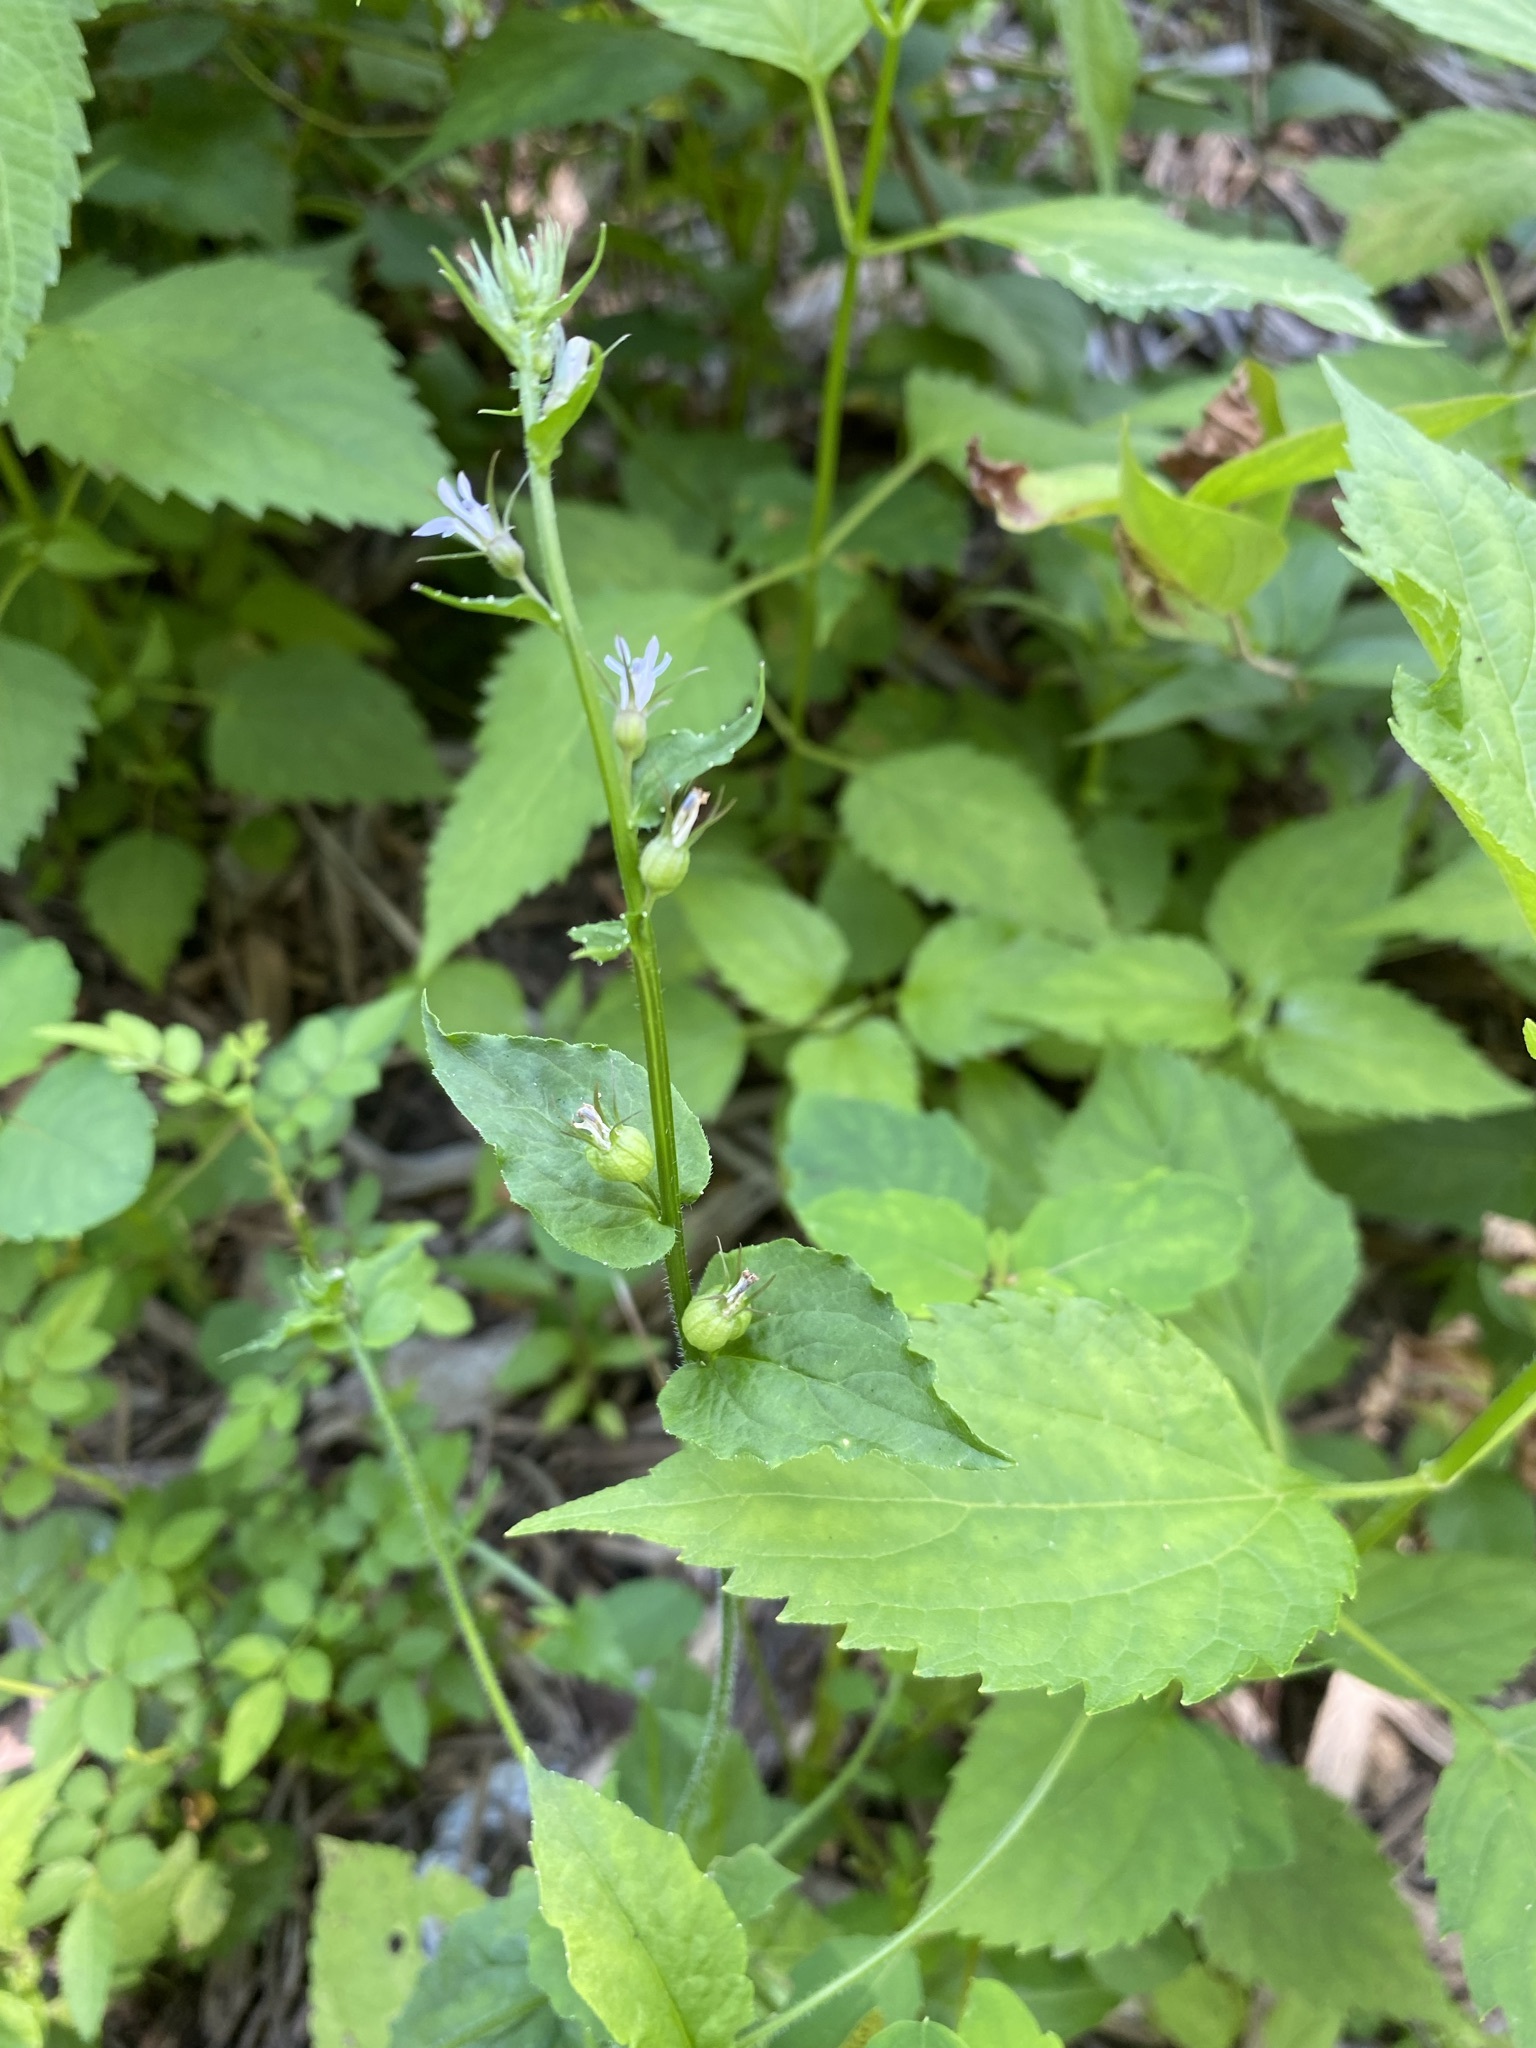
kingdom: Plantae
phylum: Tracheophyta
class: Magnoliopsida
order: Asterales
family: Campanulaceae
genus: Lobelia
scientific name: Lobelia inflata
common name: Indian tobacco
